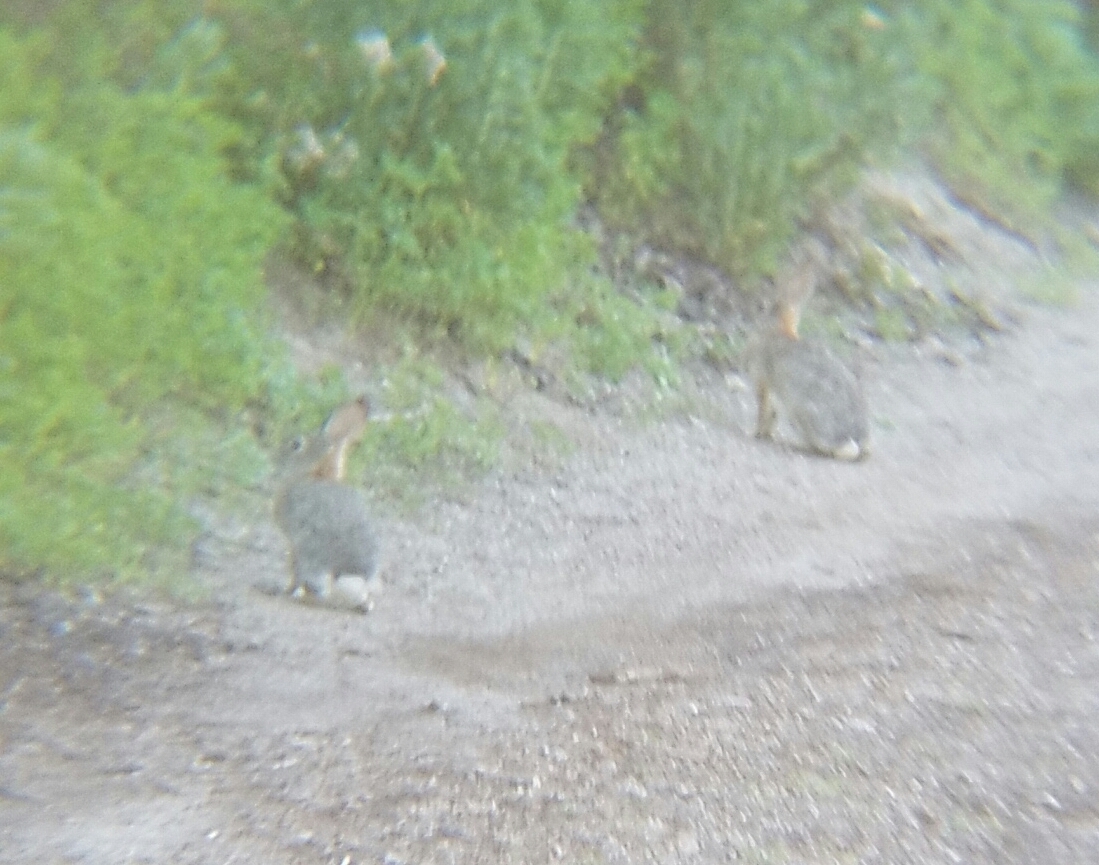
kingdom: Animalia
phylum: Chordata
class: Mammalia
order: Lagomorpha
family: Leporidae
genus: Sylvilagus
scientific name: Sylvilagus audubonii
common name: Desert cottontail
